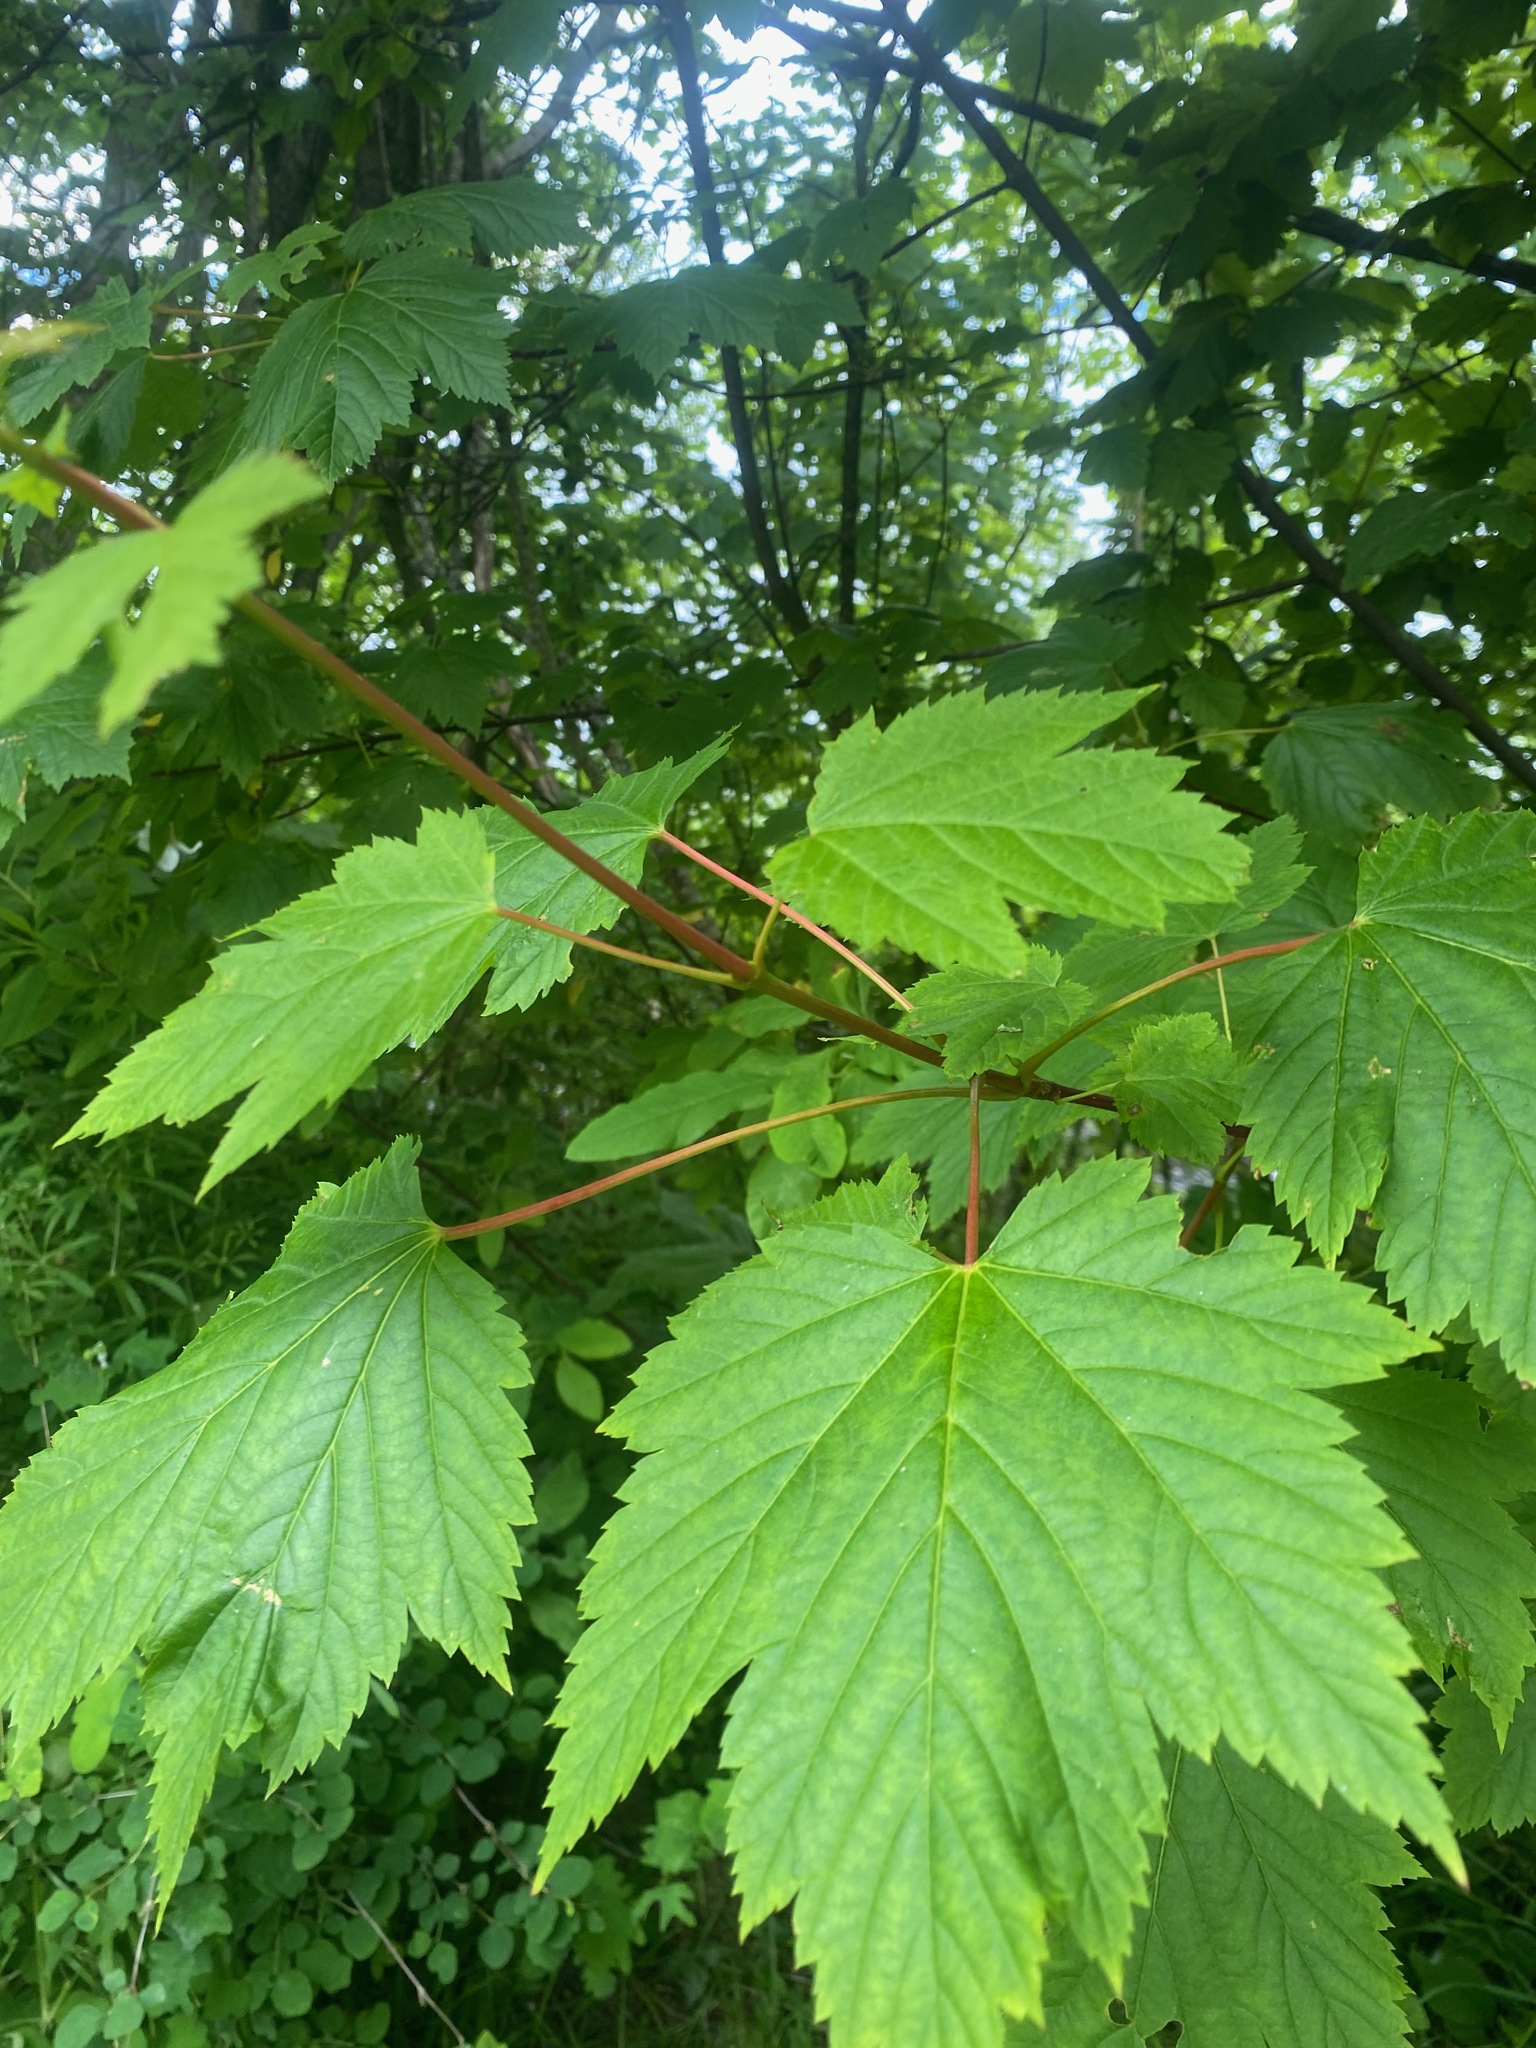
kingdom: Plantae
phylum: Tracheophyta
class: Magnoliopsida
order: Sapindales
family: Sapindaceae
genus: Acer
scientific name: Acer glabrum
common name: Rocky mountain maple
